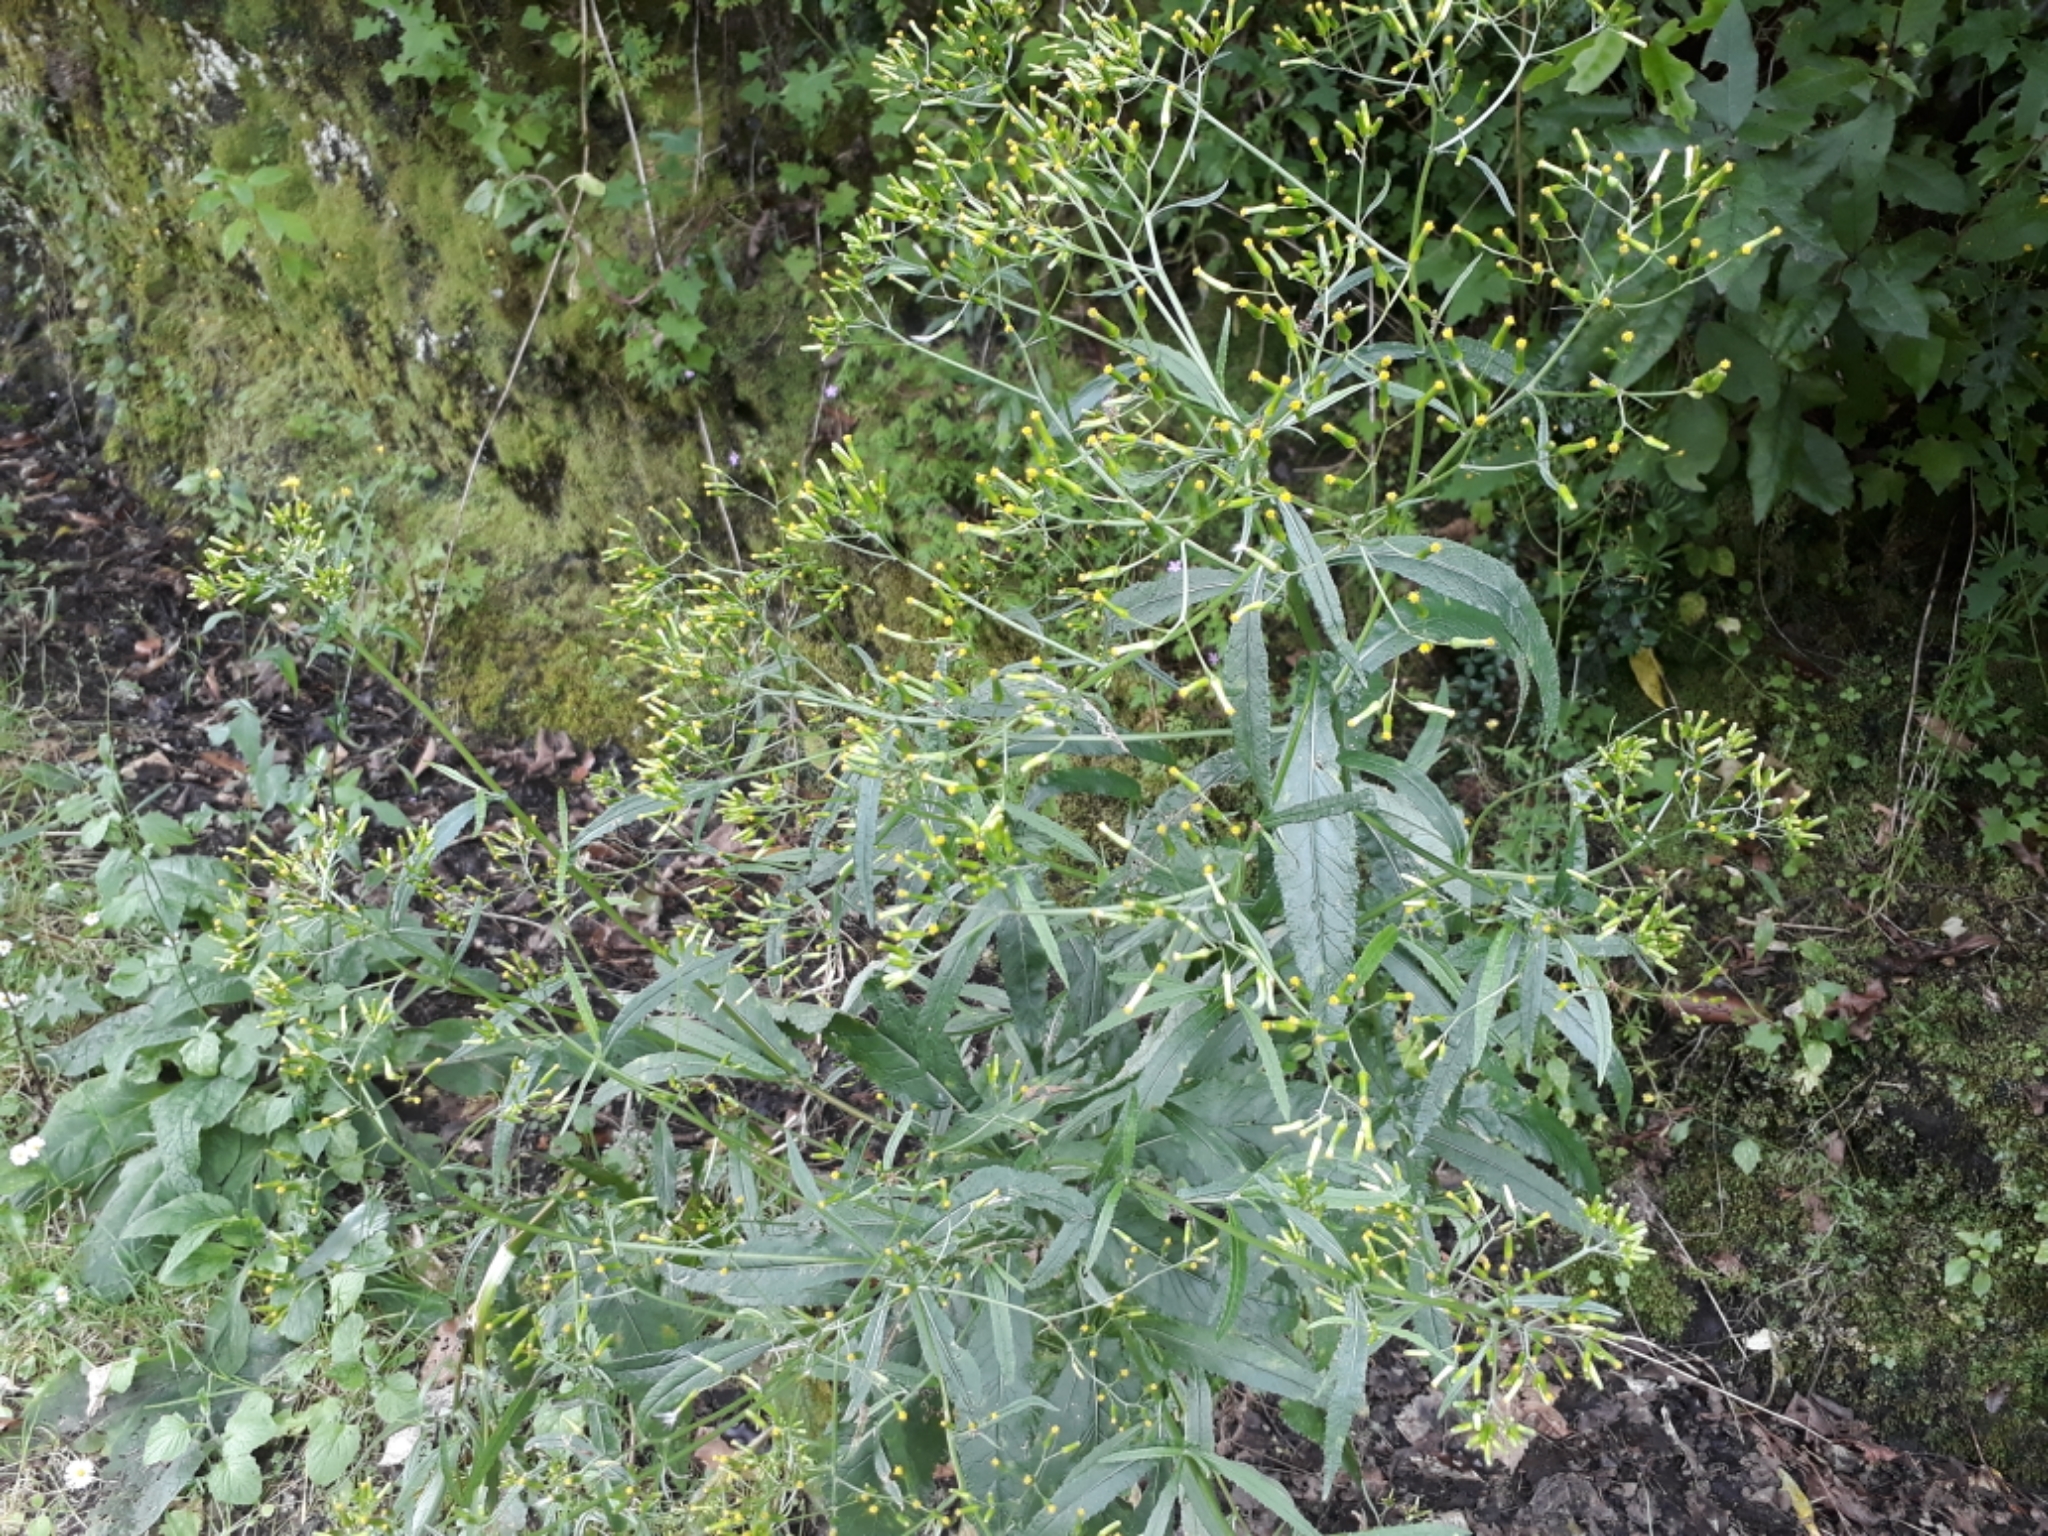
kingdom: Plantae
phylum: Tracheophyta
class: Magnoliopsida
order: Asterales
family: Asteraceae
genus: Senecio
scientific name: Senecio minimus
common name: Toothed fireweed
